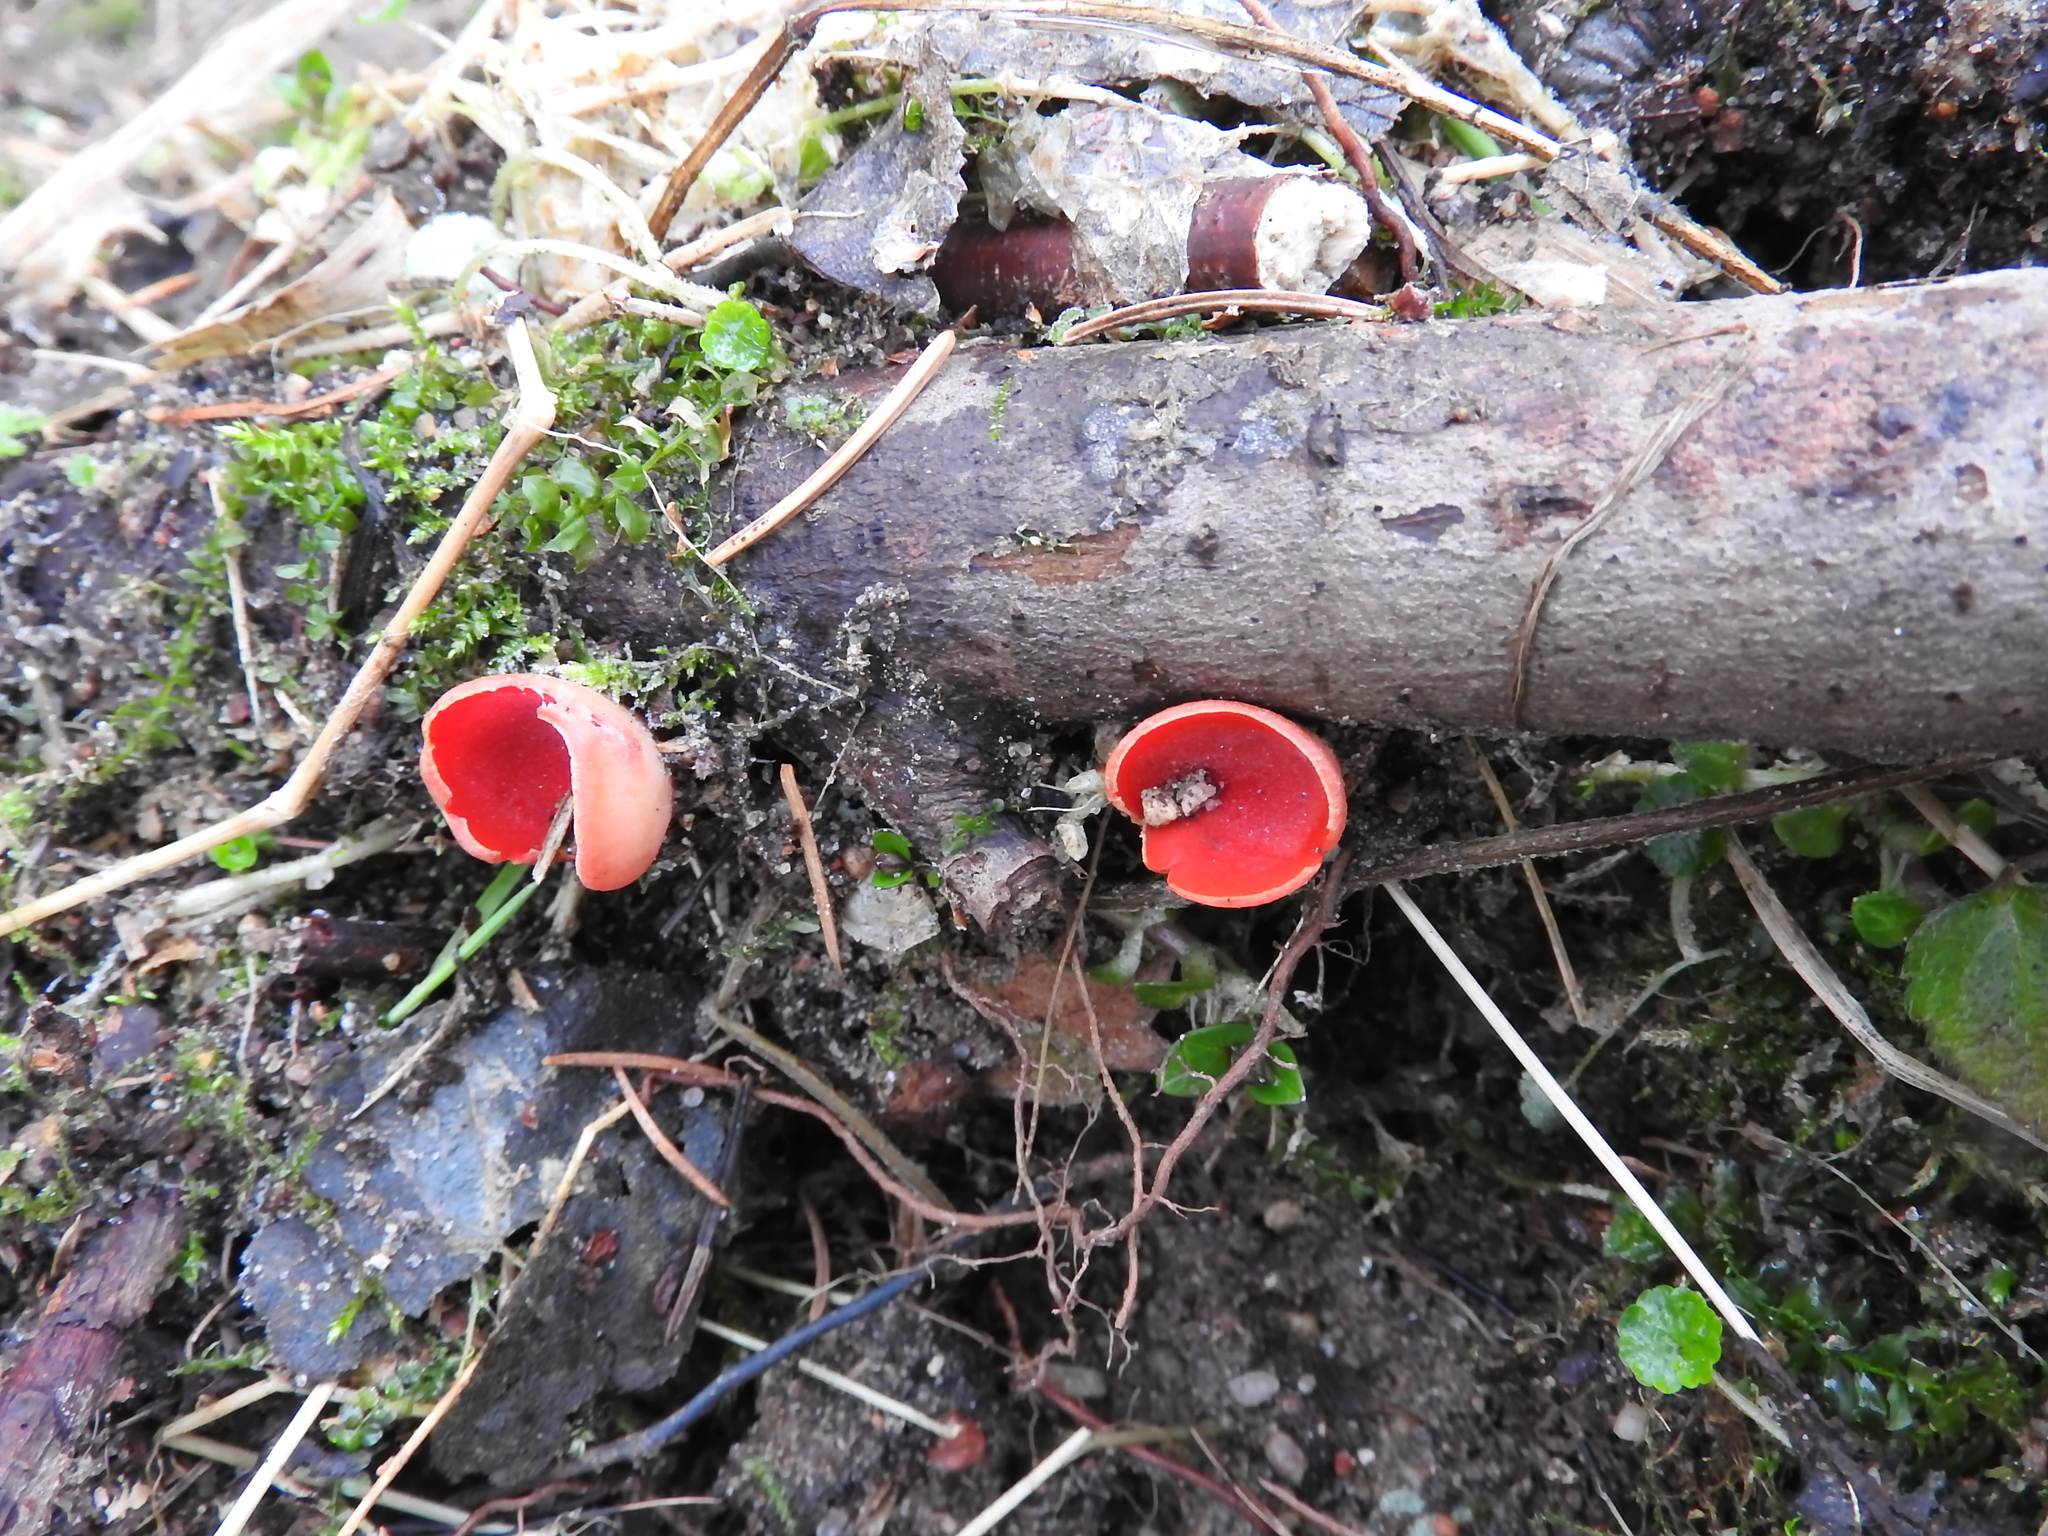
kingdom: Fungi
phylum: Ascomycota
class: Pezizomycetes
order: Pezizales
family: Sarcoscyphaceae
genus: Sarcoscypha
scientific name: Sarcoscypha
